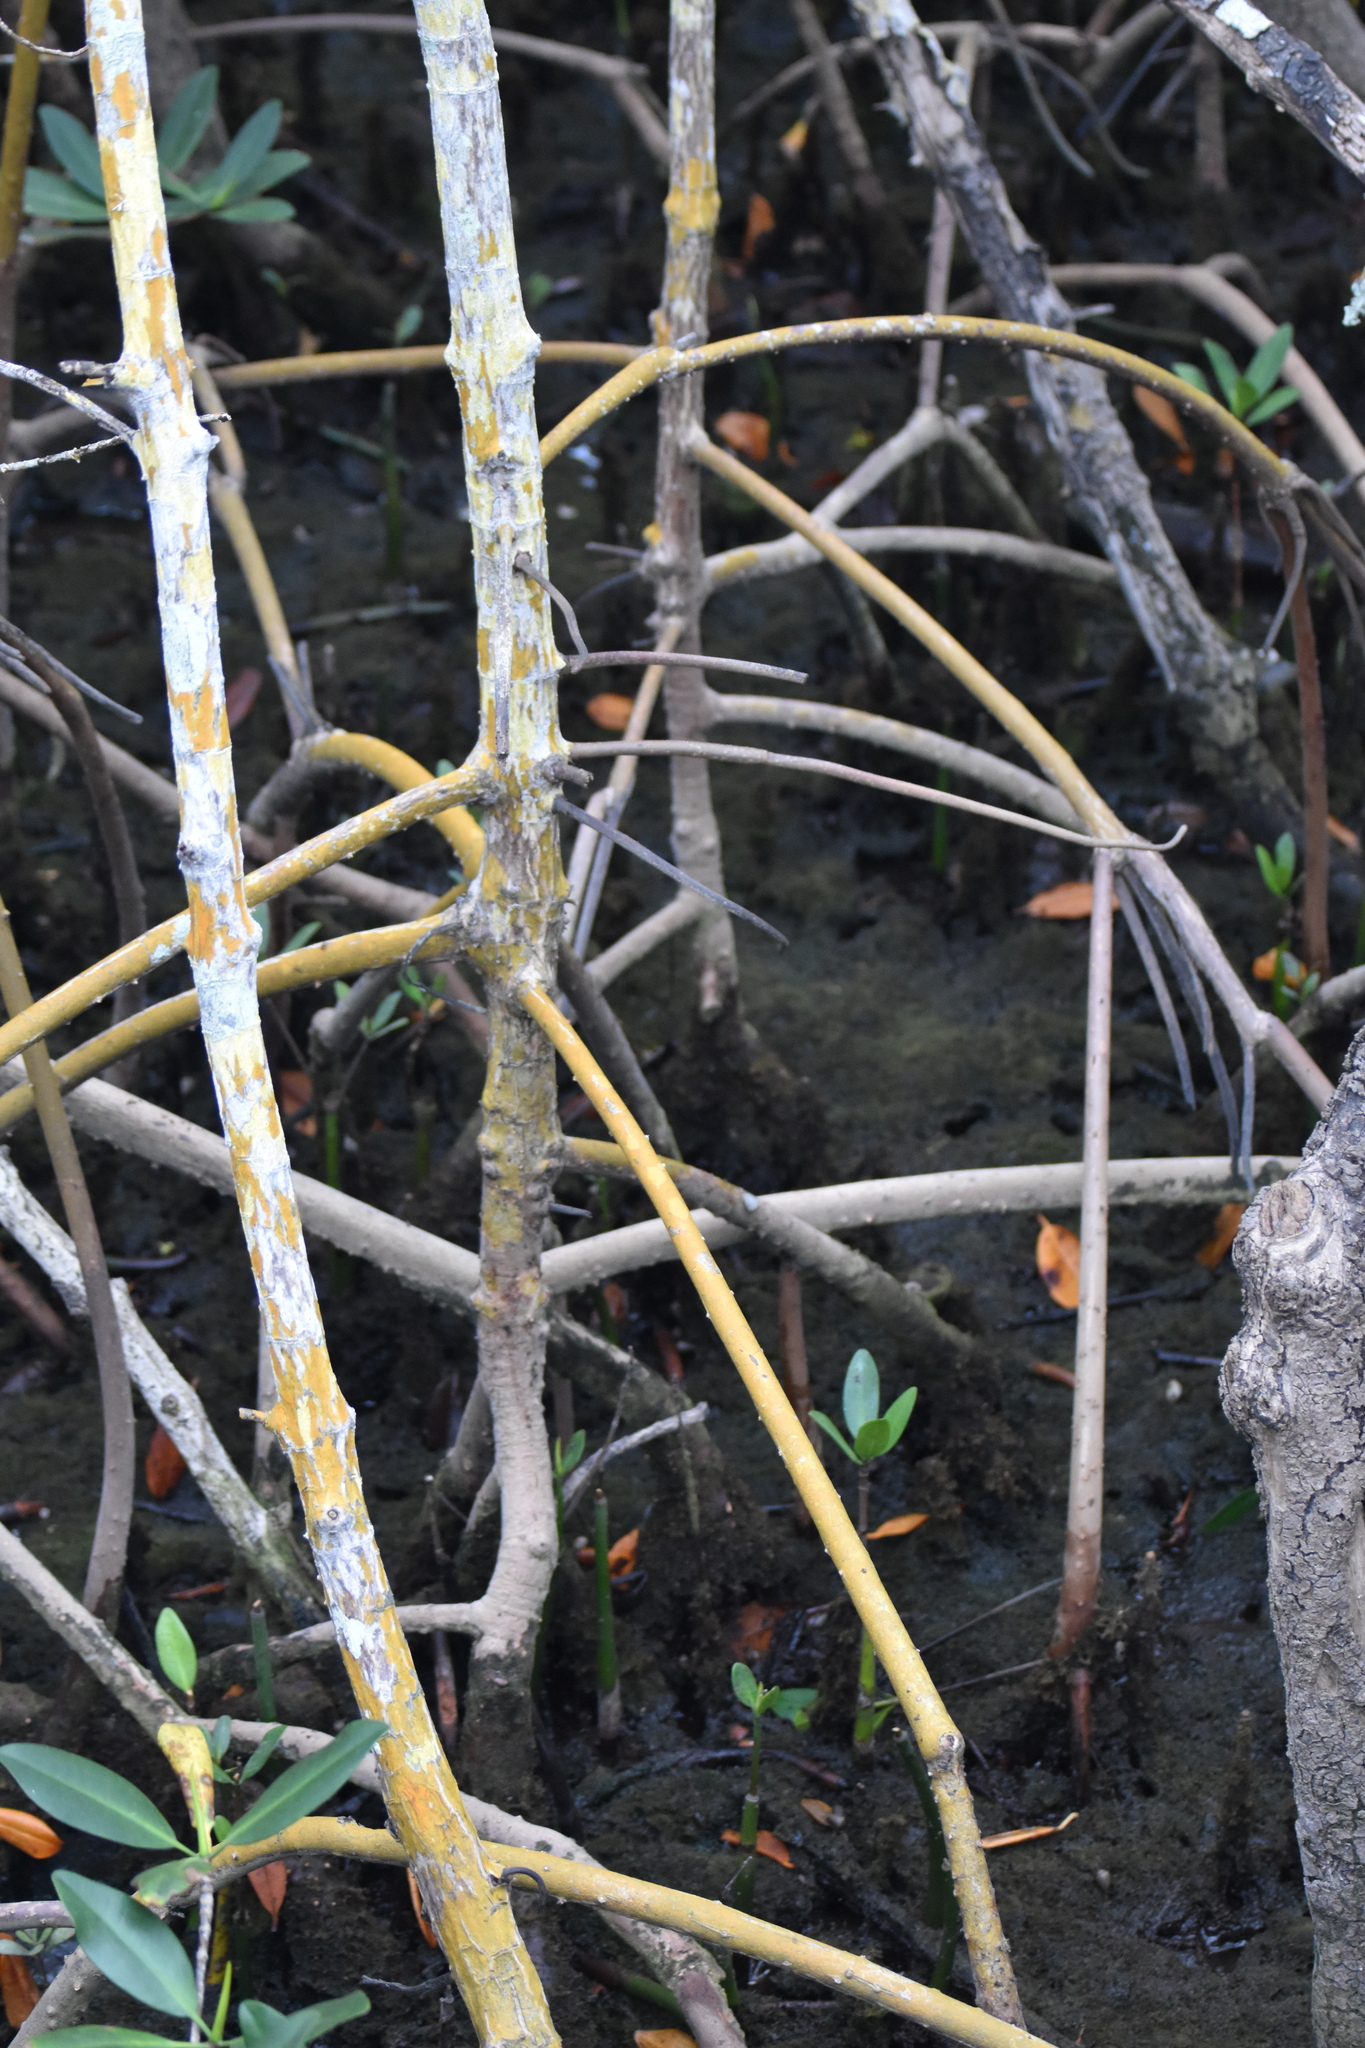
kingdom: Plantae
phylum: Tracheophyta
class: Magnoliopsida
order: Malpighiales
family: Rhizophoraceae
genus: Rhizophora
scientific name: Rhizophora mangle
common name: Red mangrove
